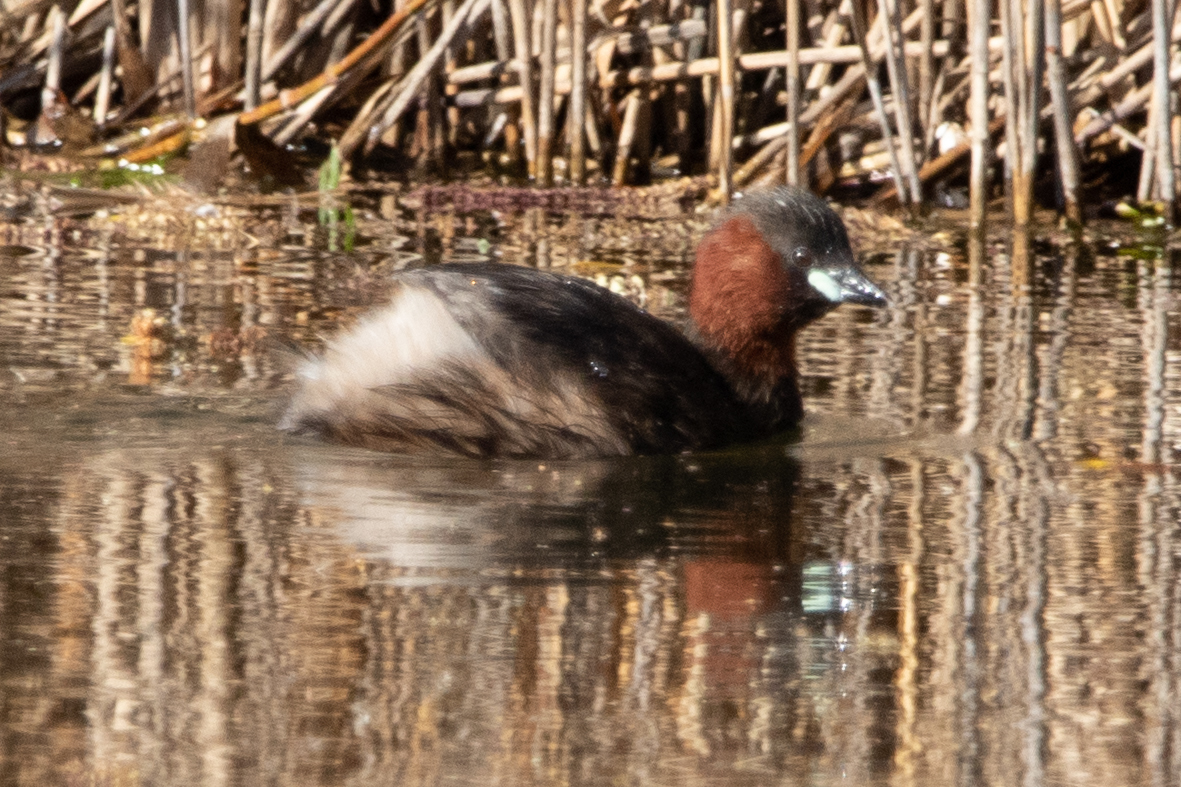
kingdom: Animalia
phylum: Chordata
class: Aves
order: Podicipediformes
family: Podicipedidae
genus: Tachybaptus
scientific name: Tachybaptus ruficollis
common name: Little grebe
